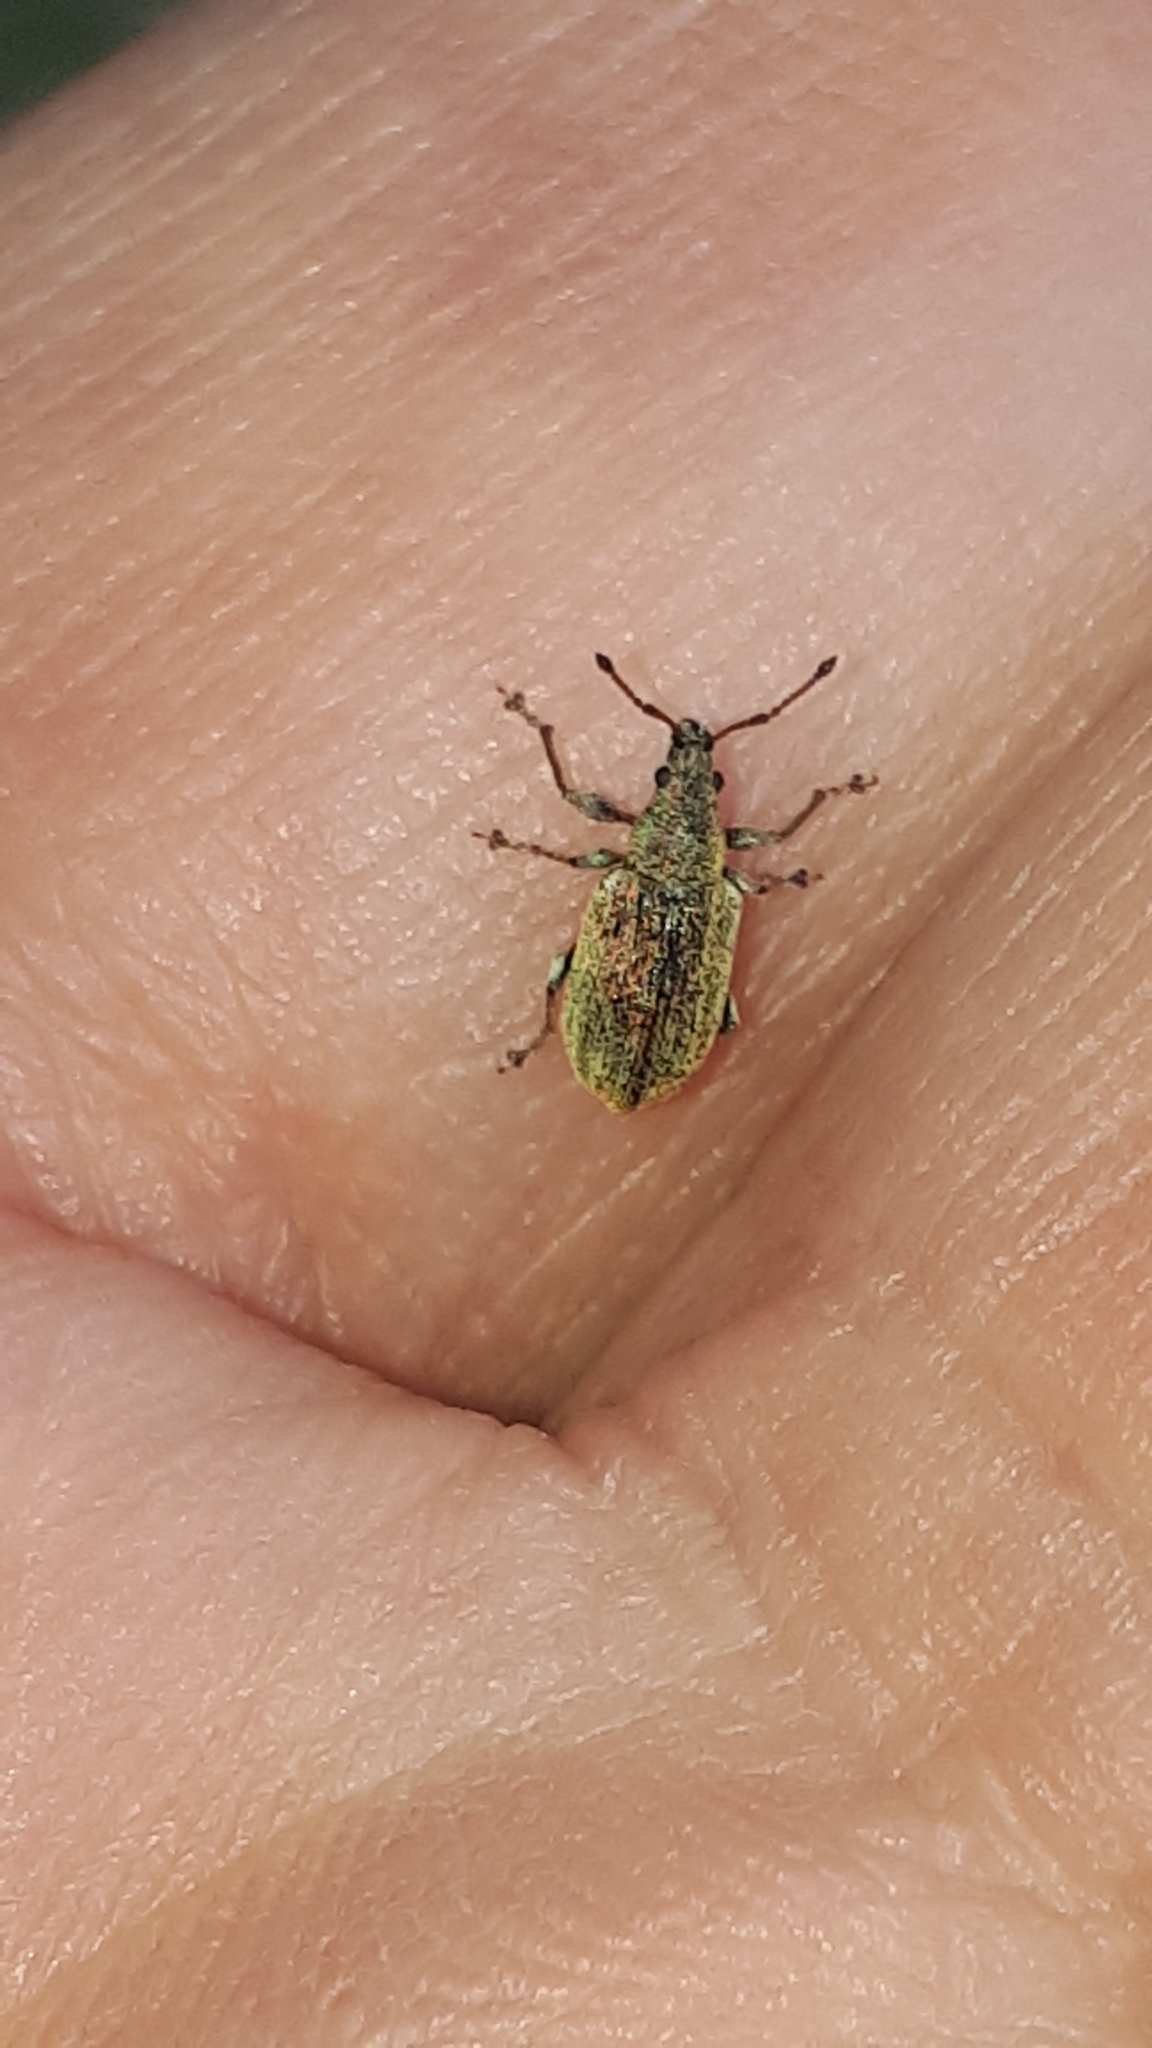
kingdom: Animalia
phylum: Arthropoda
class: Insecta
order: Coleoptera
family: Curculionidae
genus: Phyllobius
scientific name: Phyllobius pyri
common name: Common leaf weevil
